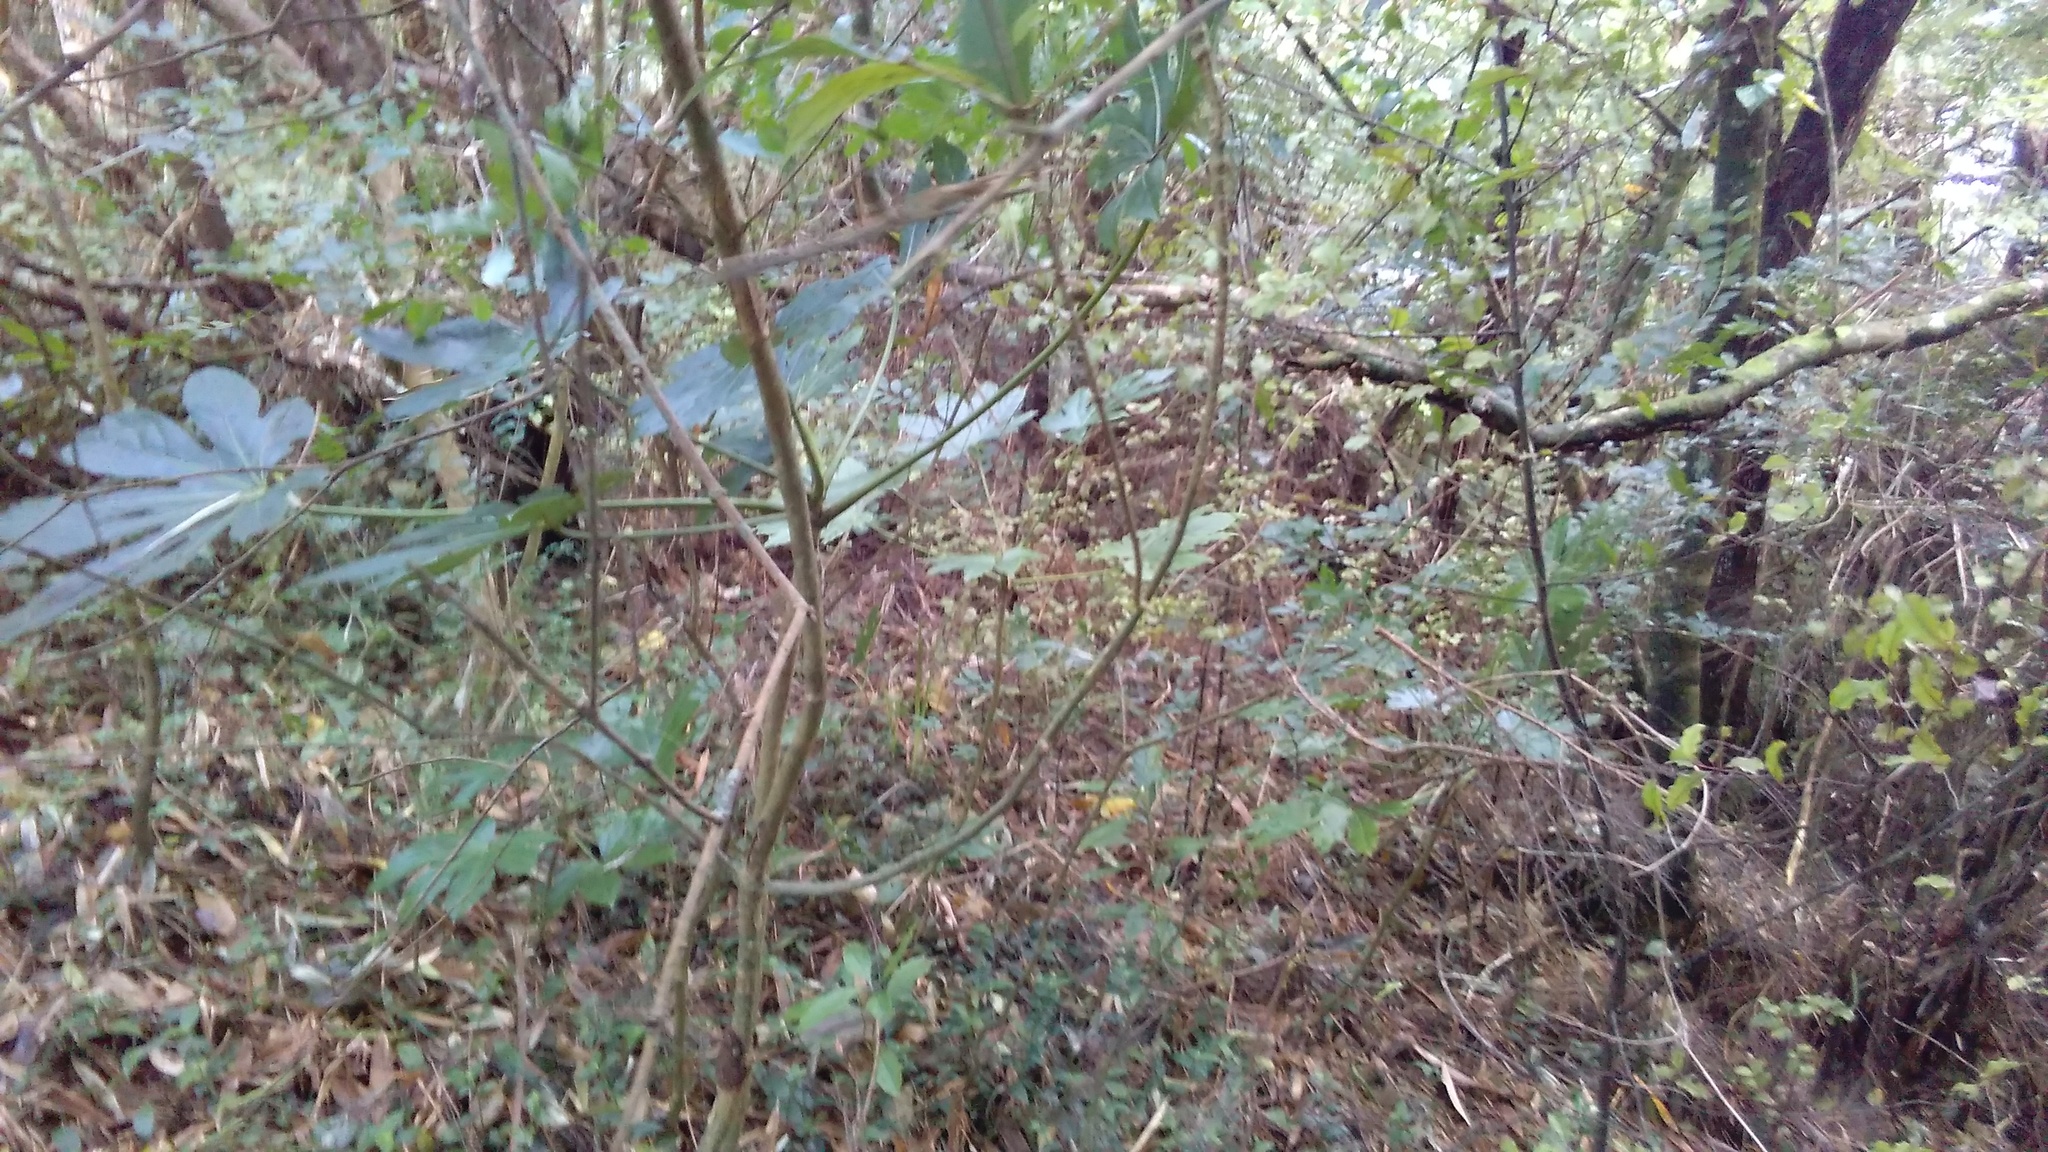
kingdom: Plantae
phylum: Tracheophyta
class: Magnoliopsida
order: Apiales
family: Araliaceae
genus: Fatsia
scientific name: Fatsia japonica
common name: Fatsia
